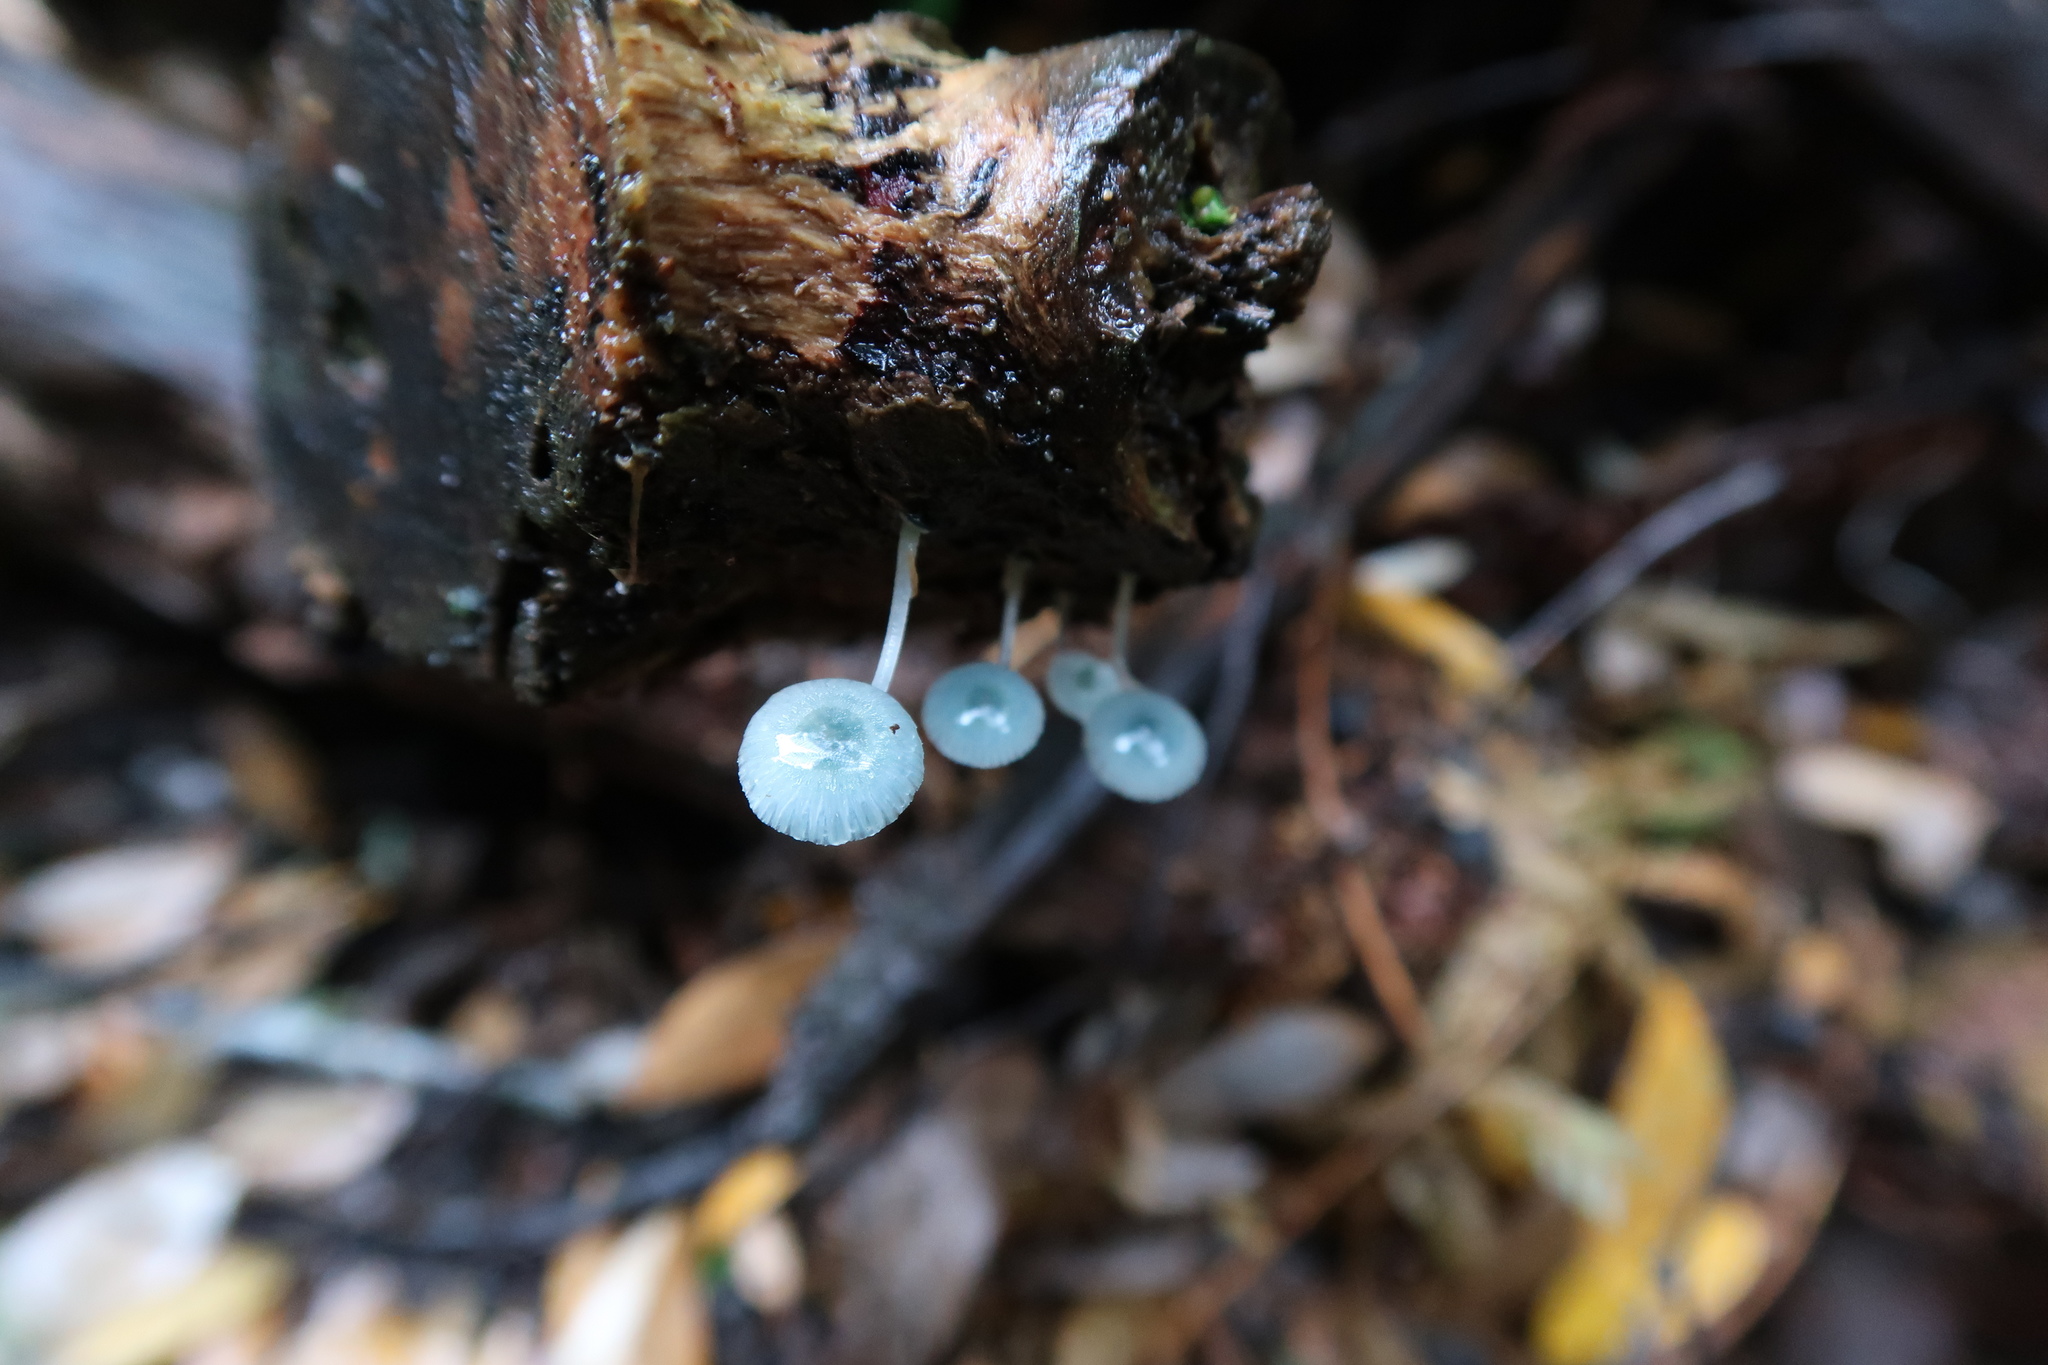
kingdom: Fungi
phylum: Basidiomycota
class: Agaricomycetes
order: Agaricales
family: Mycenaceae
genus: Mycena
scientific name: Mycena interrupta
